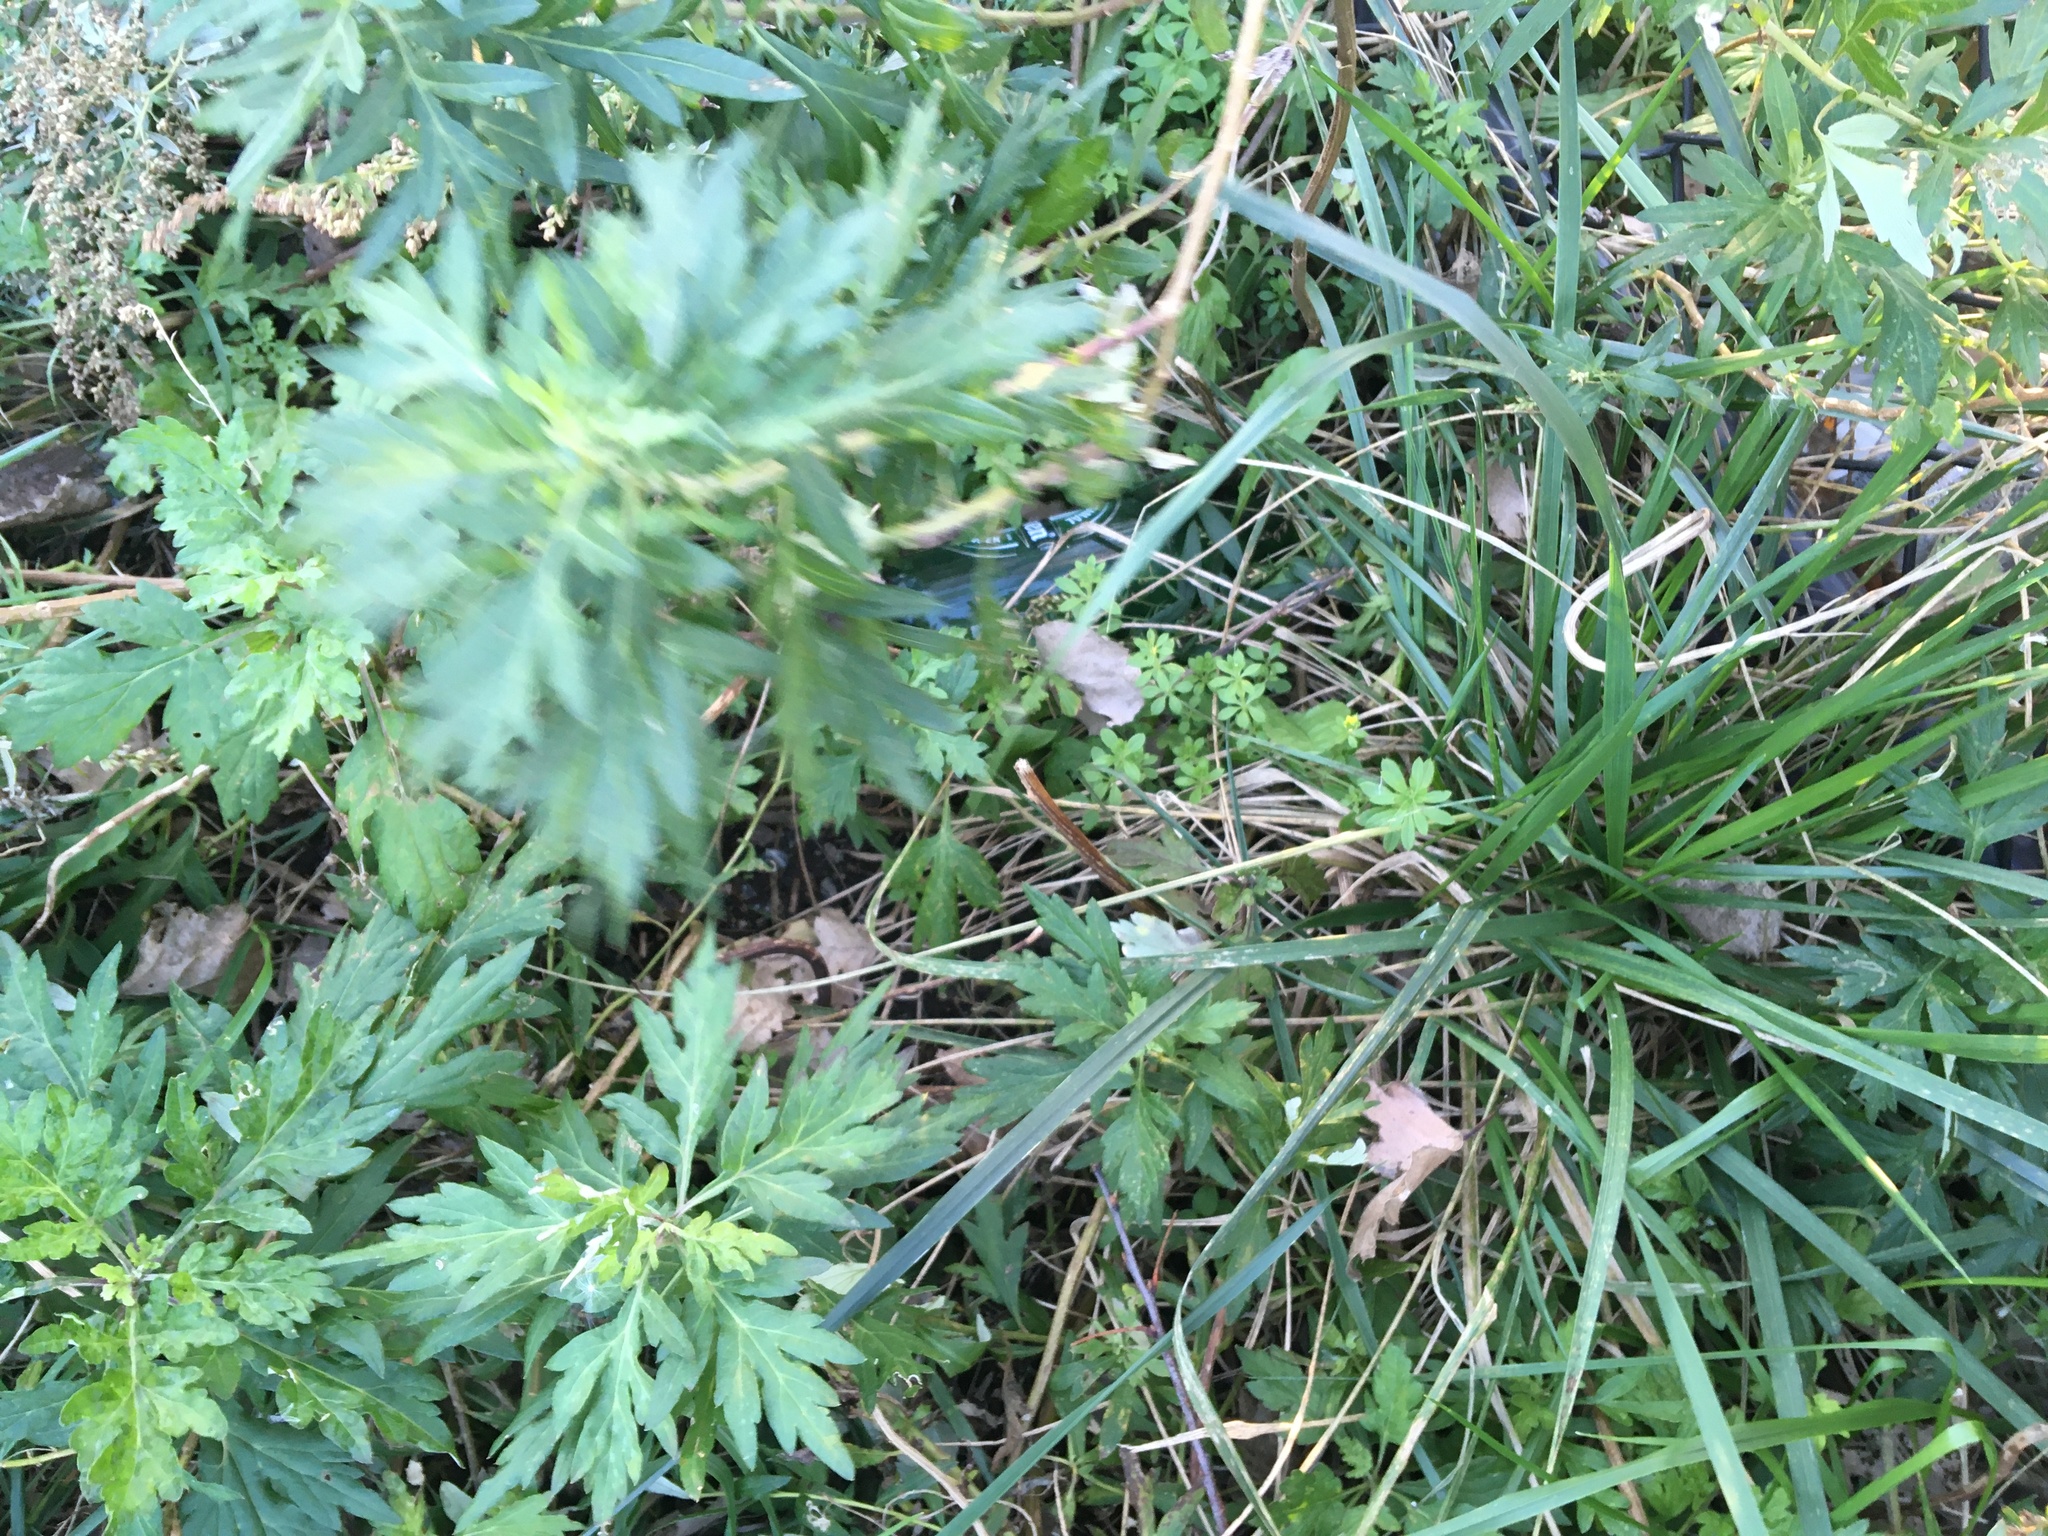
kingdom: Plantae
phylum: Tracheophyta
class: Magnoliopsida
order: Asterales
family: Asteraceae
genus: Artemisia
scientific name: Artemisia vulgaris
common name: Mugwort
